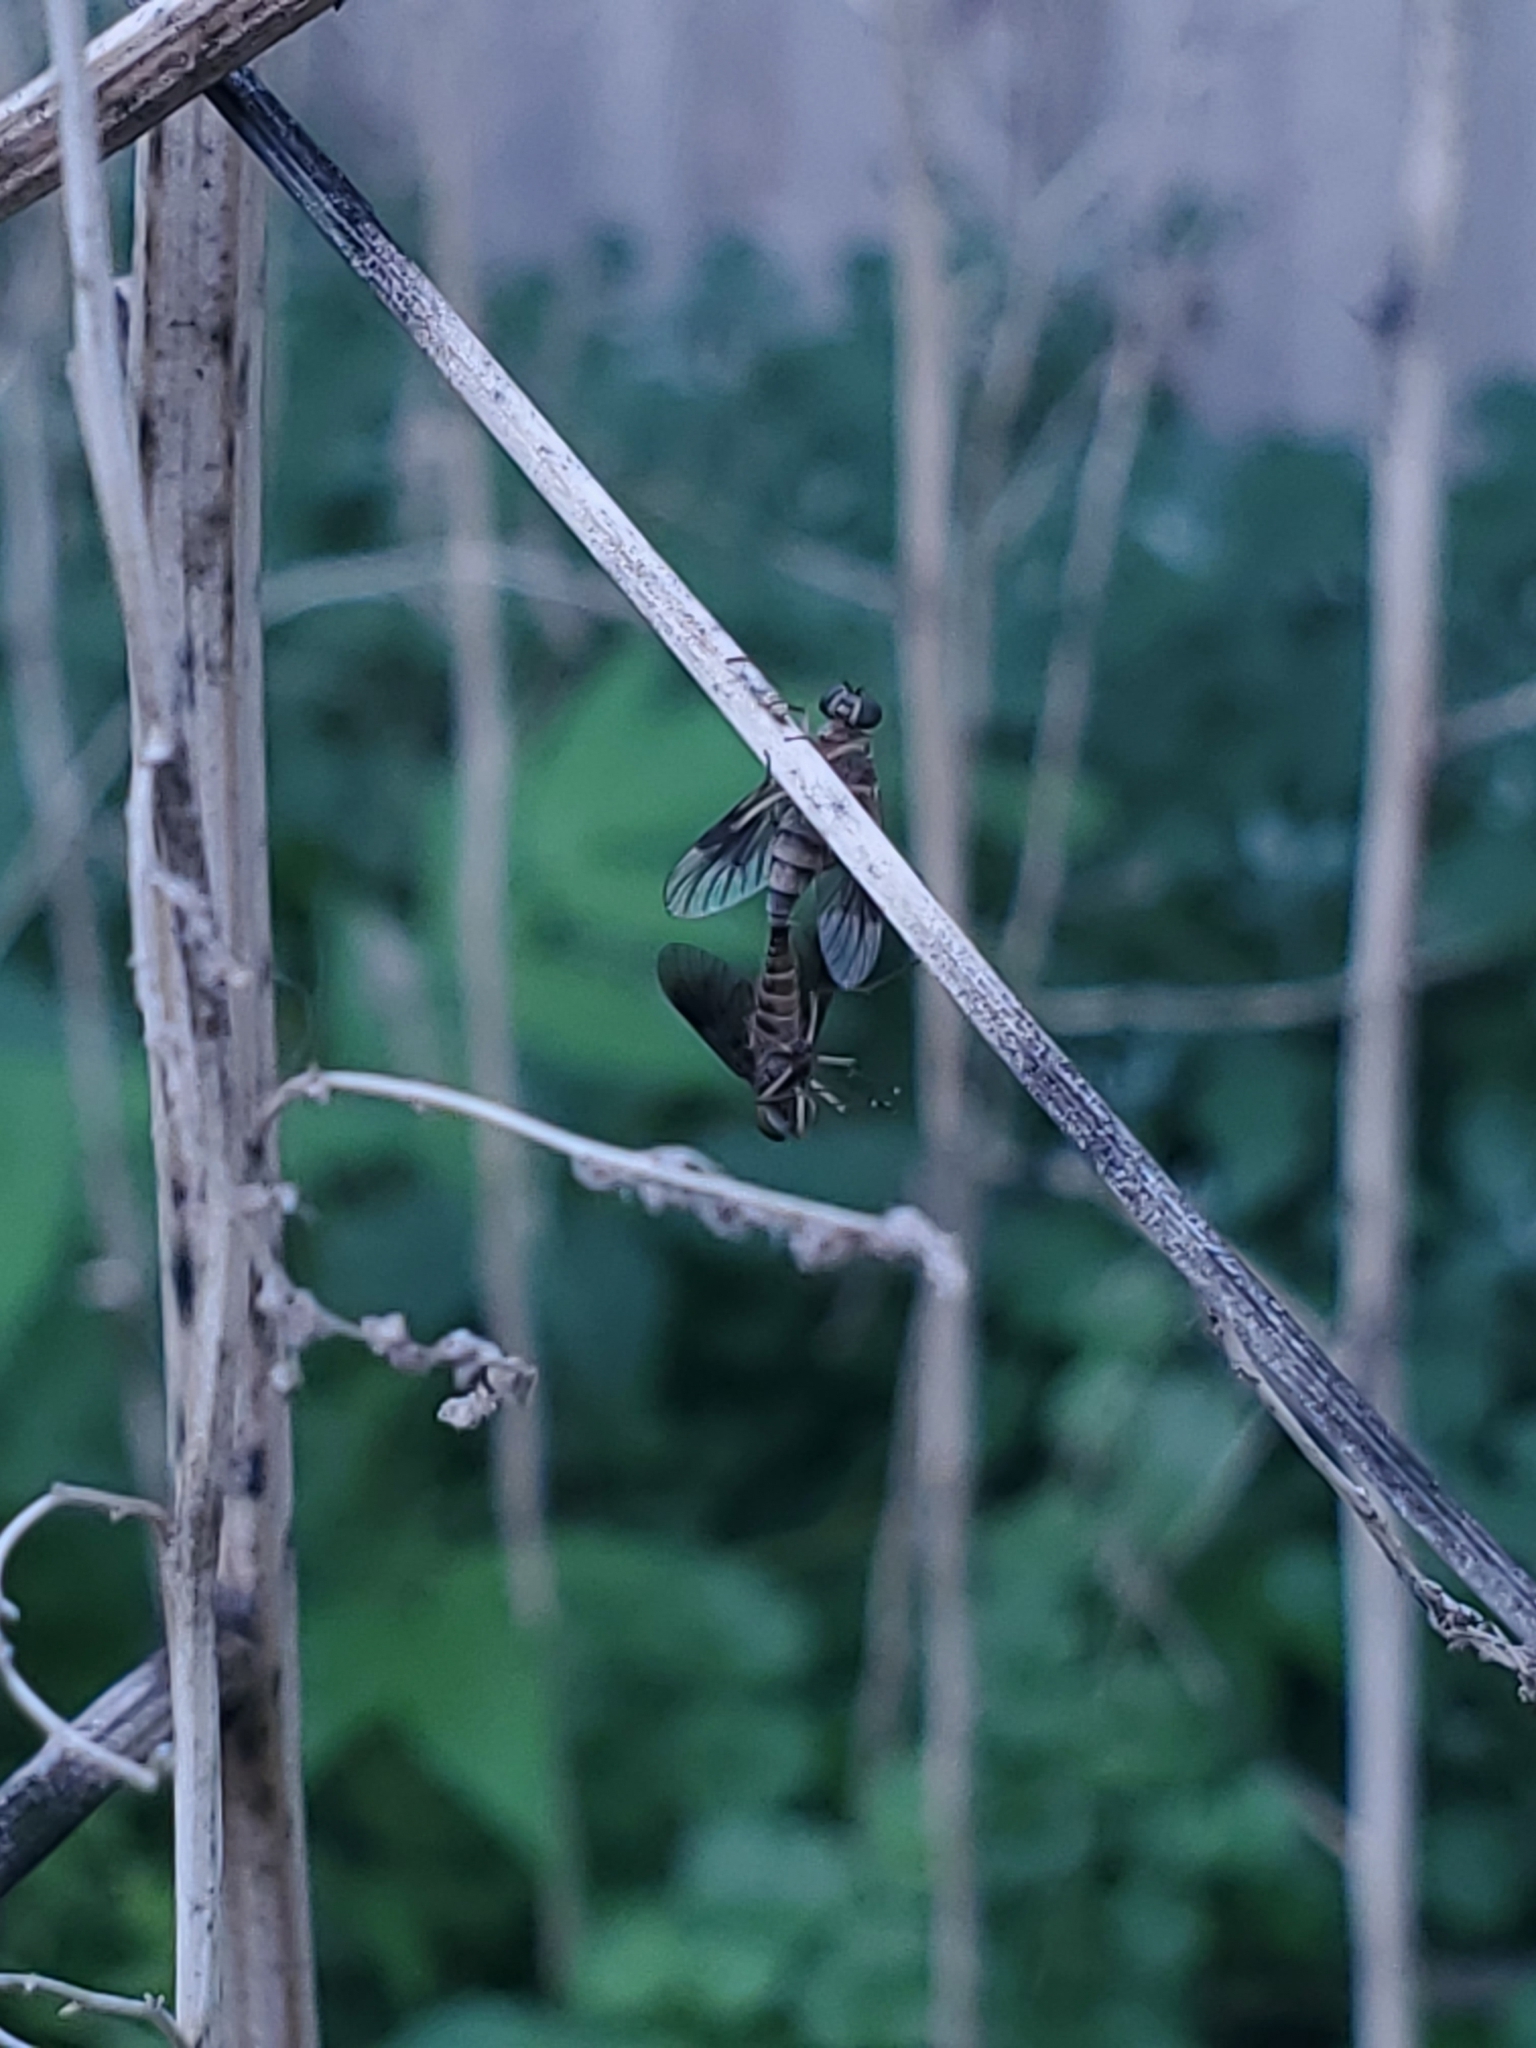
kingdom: Animalia
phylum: Arthropoda
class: Insecta
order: Diptera
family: Rhagionidae
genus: Chrysopilus
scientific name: Chrysopilus quadratus
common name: Quadrate snipe fly
